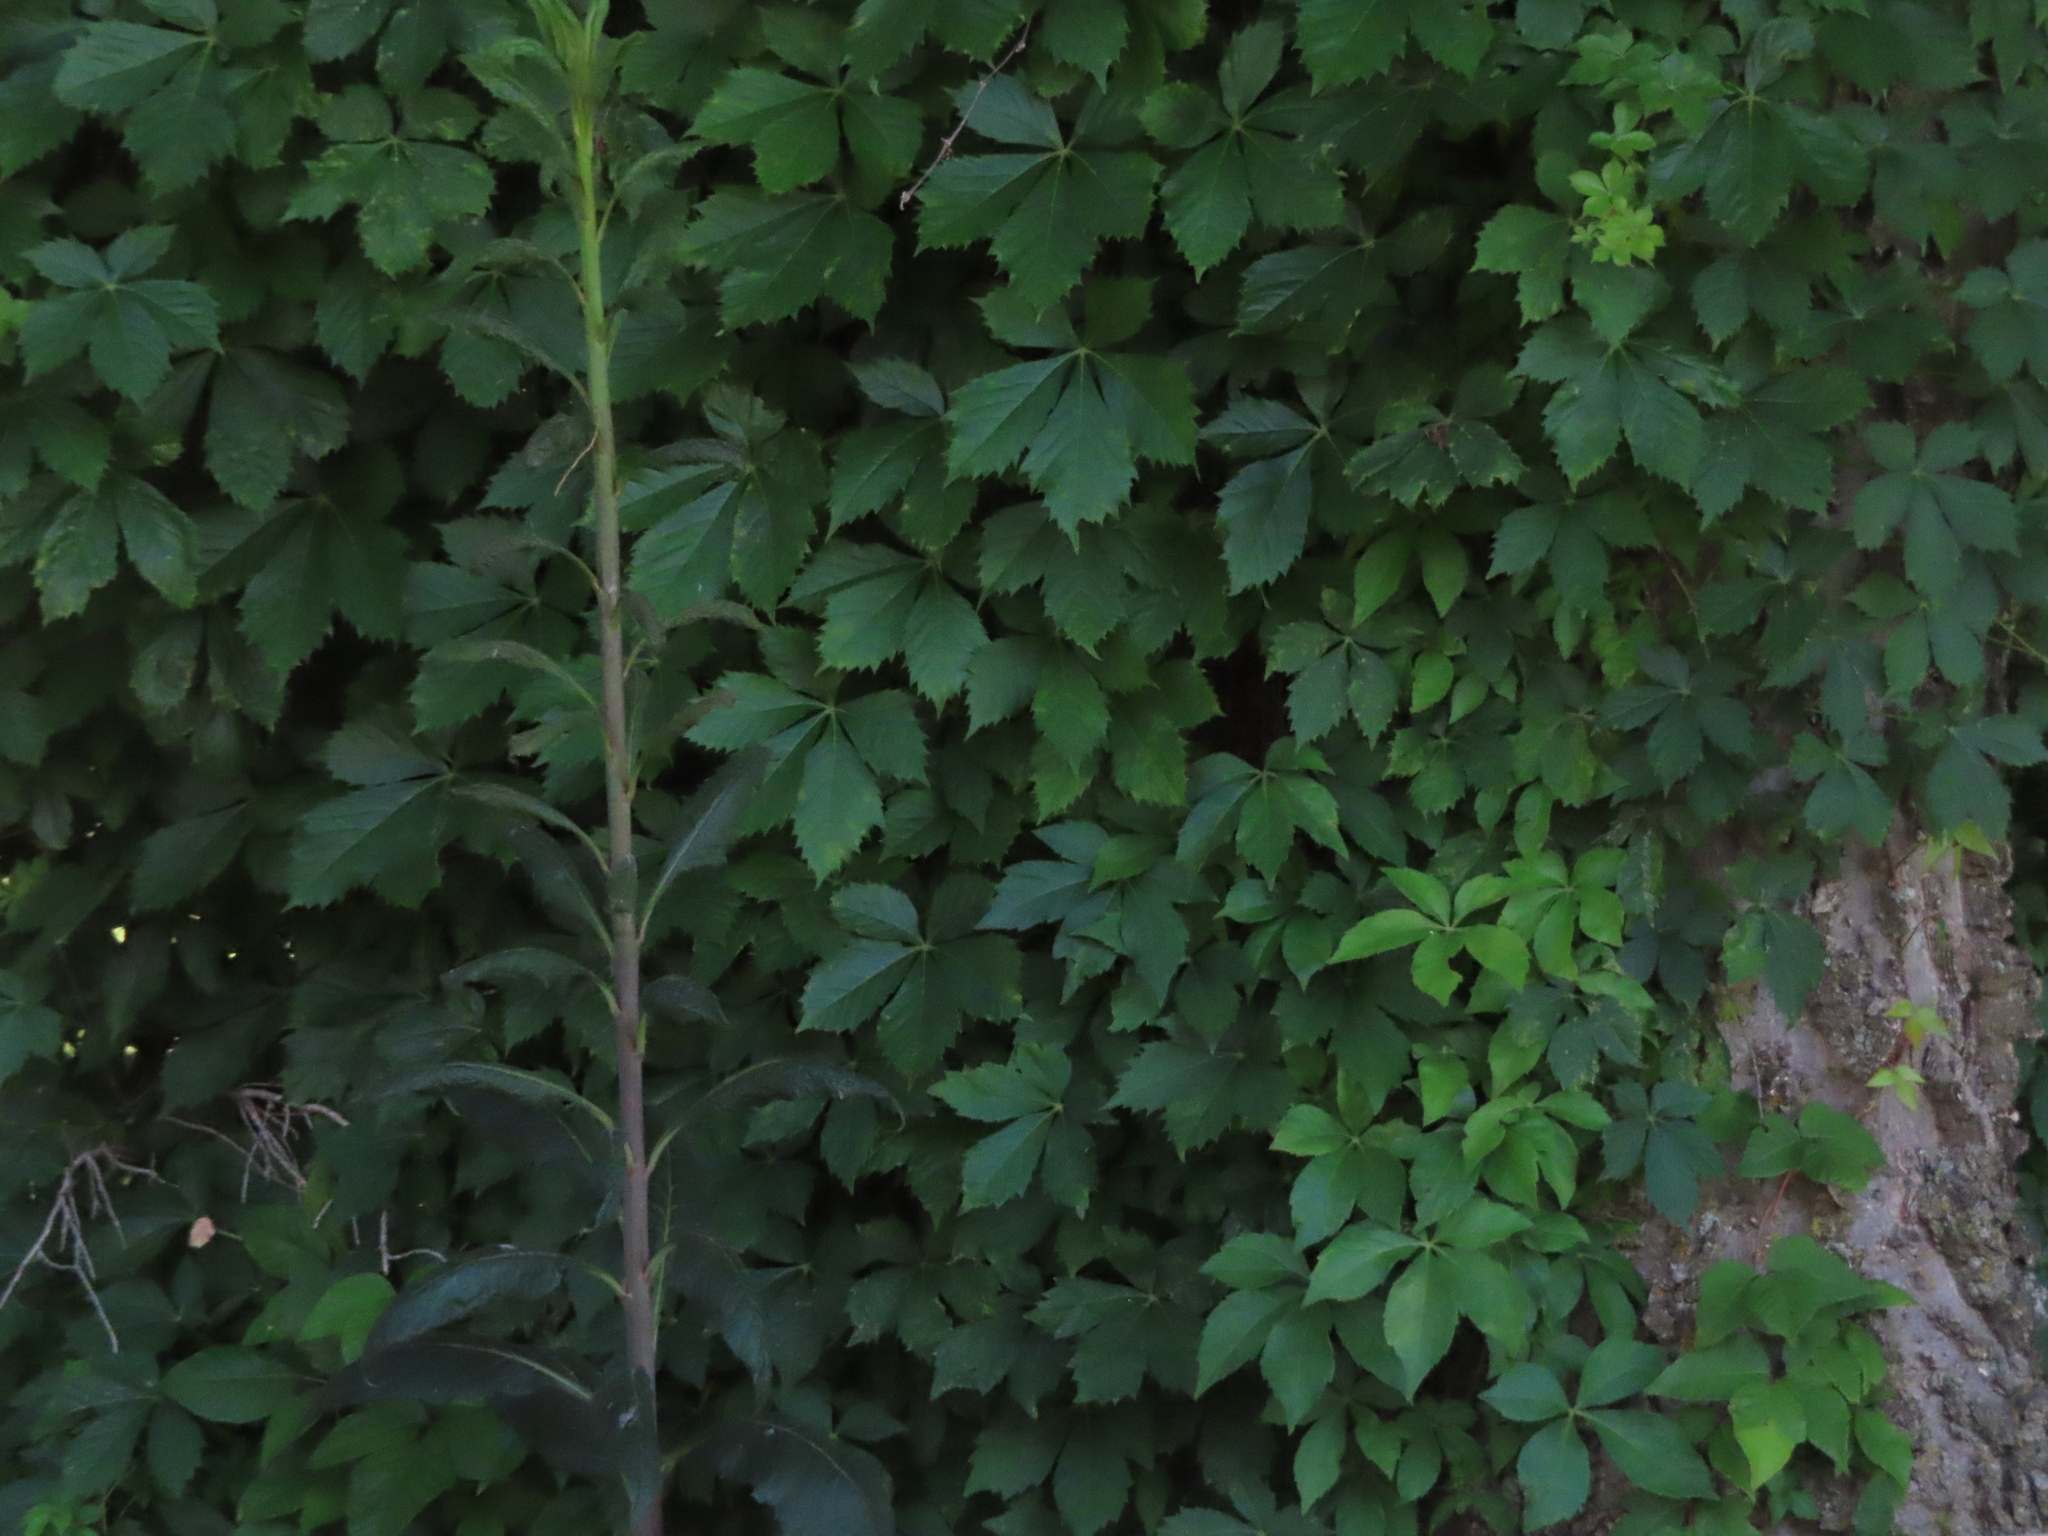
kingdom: Plantae
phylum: Tracheophyta
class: Magnoliopsida
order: Vitales
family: Vitaceae
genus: Parthenocissus
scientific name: Parthenocissus quinquefolia
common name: Virginia-creeper
